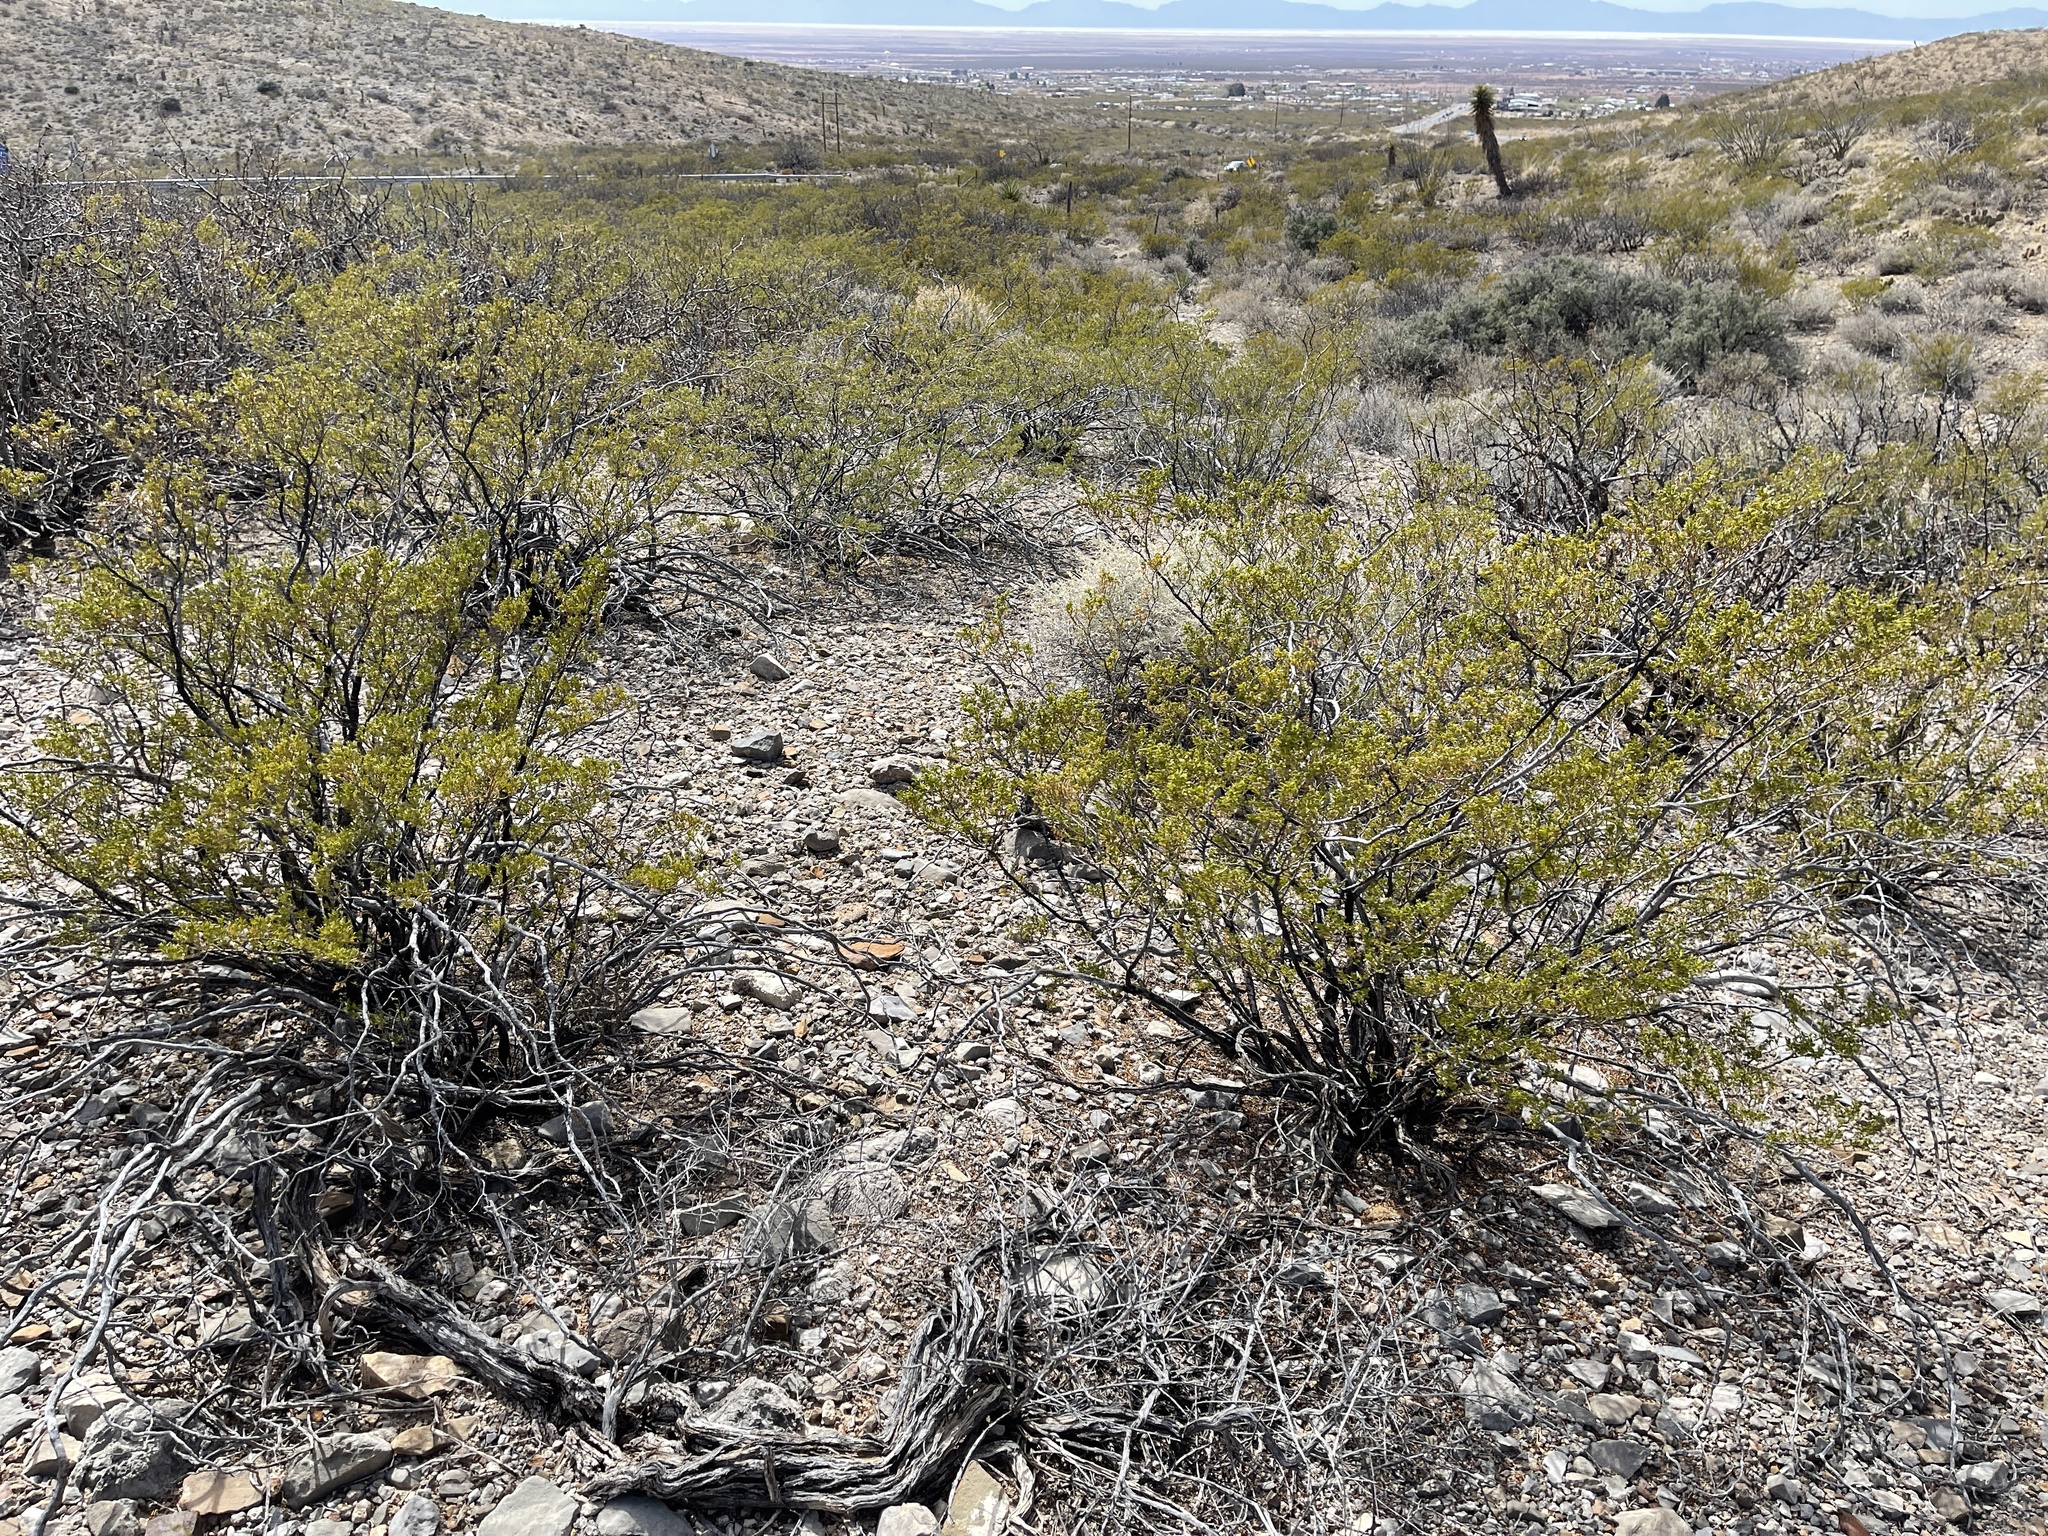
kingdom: Plantae
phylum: Tracheophyta
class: Magnoliopsida
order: Zygophyllales
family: Zygophyllaceae
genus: Larrea
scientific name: Larrea tridentata
